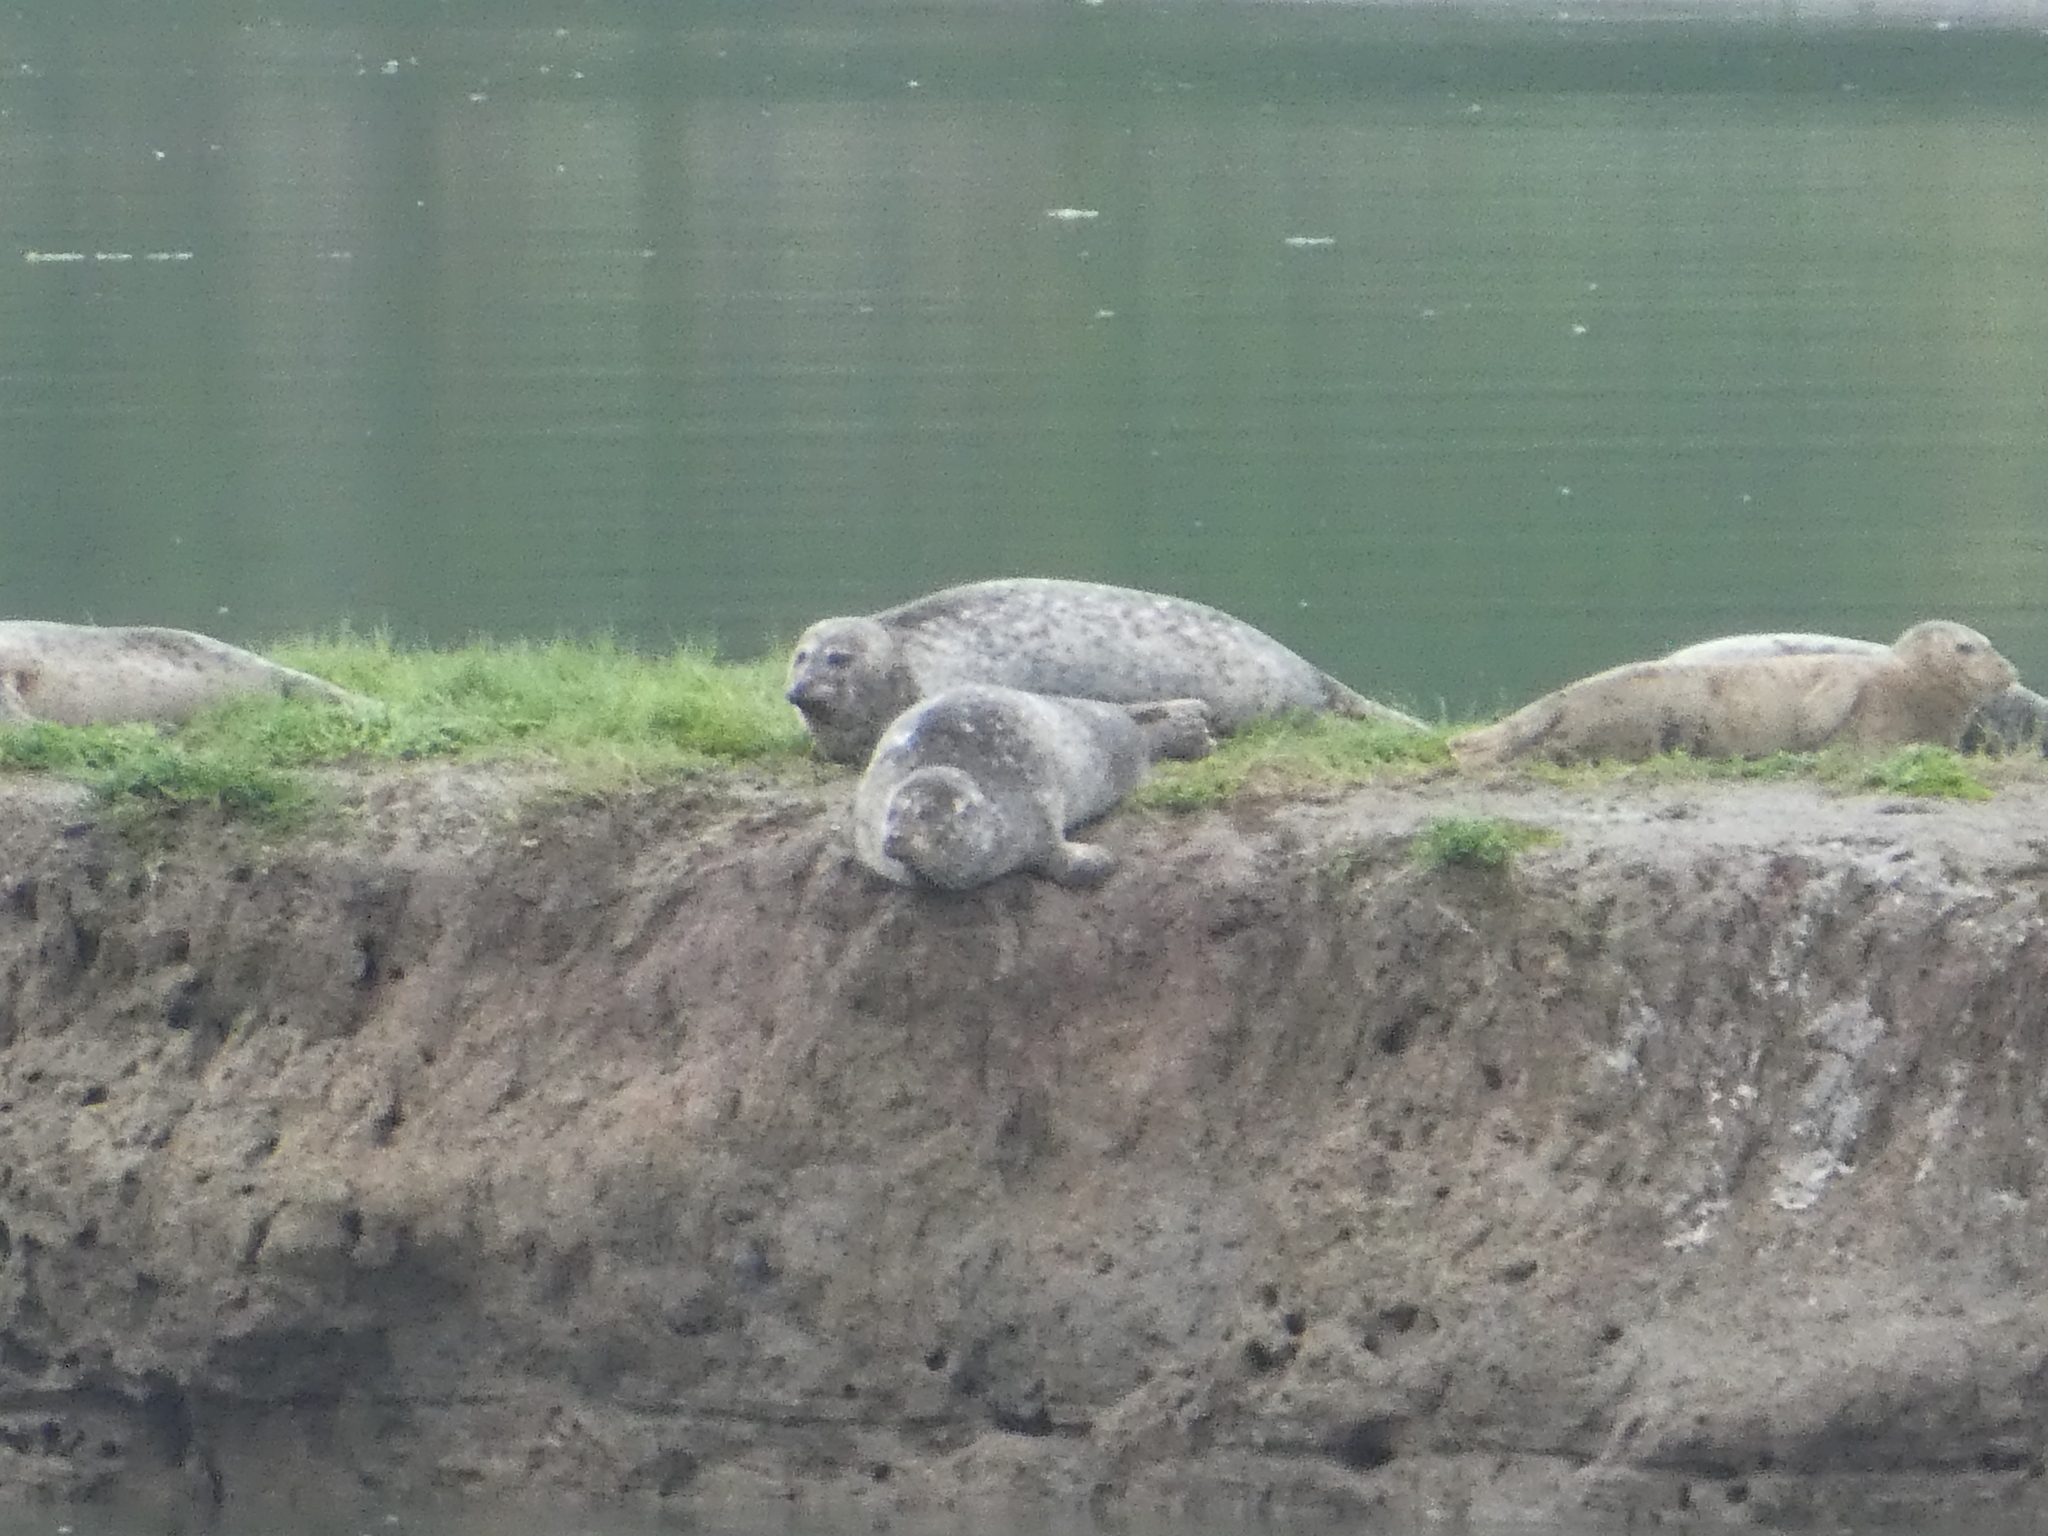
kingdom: Animalia
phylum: Chordata
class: Mammalia
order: Carnivora
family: Phocidae
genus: Phoca
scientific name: Phoca vitulina
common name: Harbor seal
